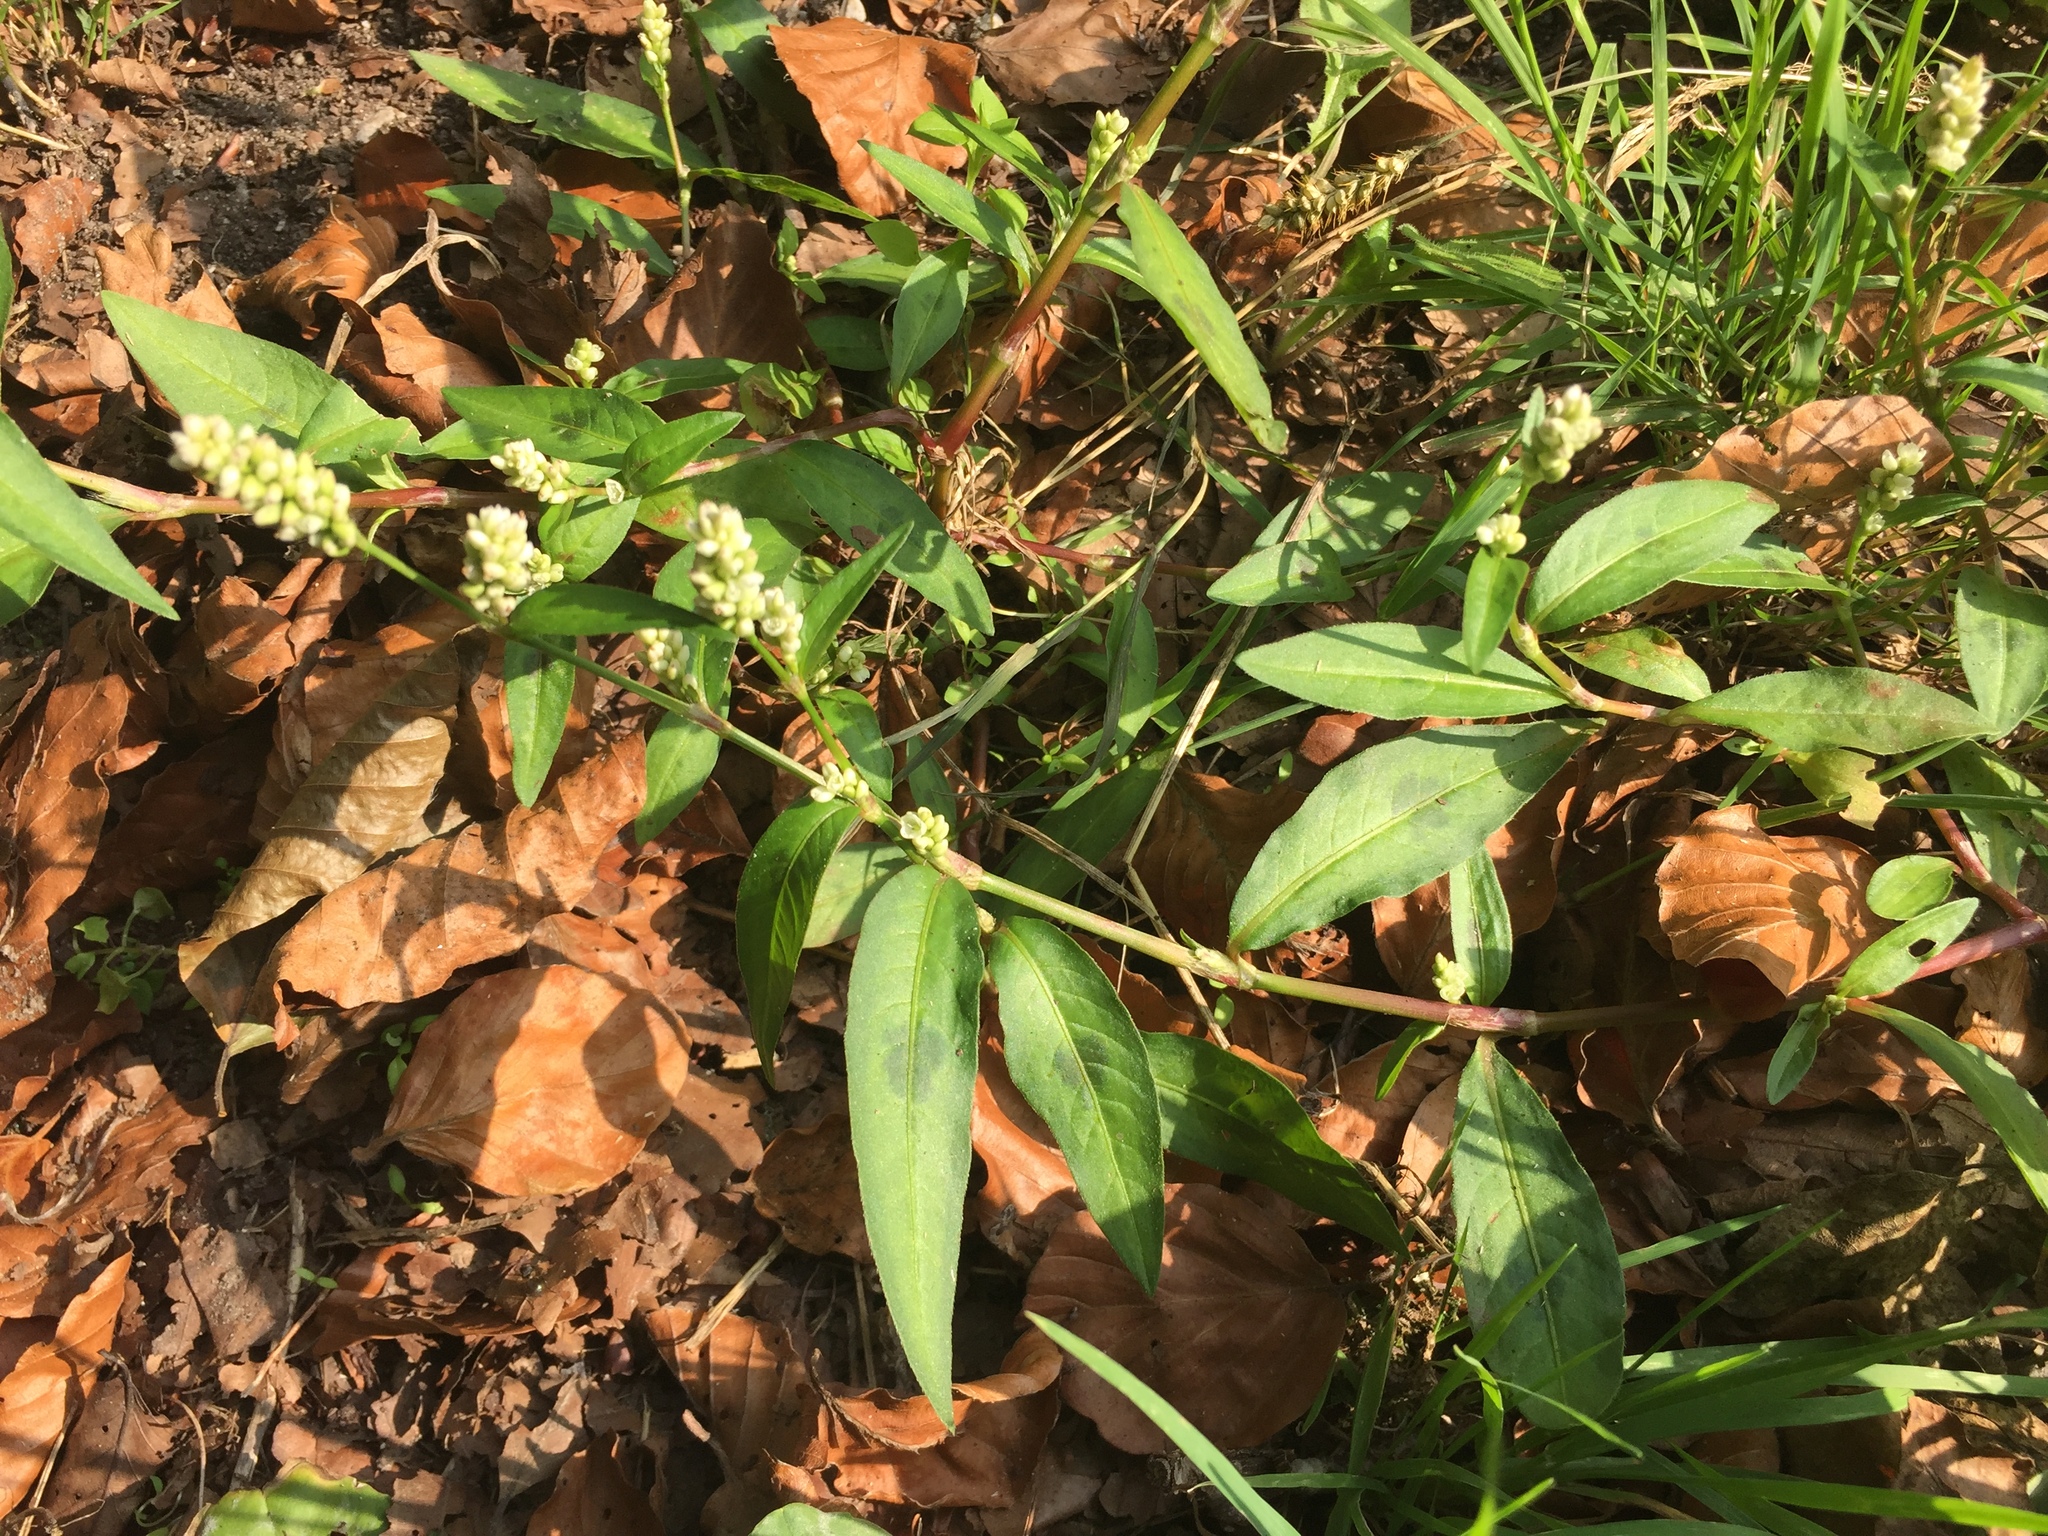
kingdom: Plantae
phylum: Tracheophyta
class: Magnoliopsida
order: Caryophyllales
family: Polygonaceae
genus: Persicaria
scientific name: Persicaria lapathifolia
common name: Curlytop knotweed
